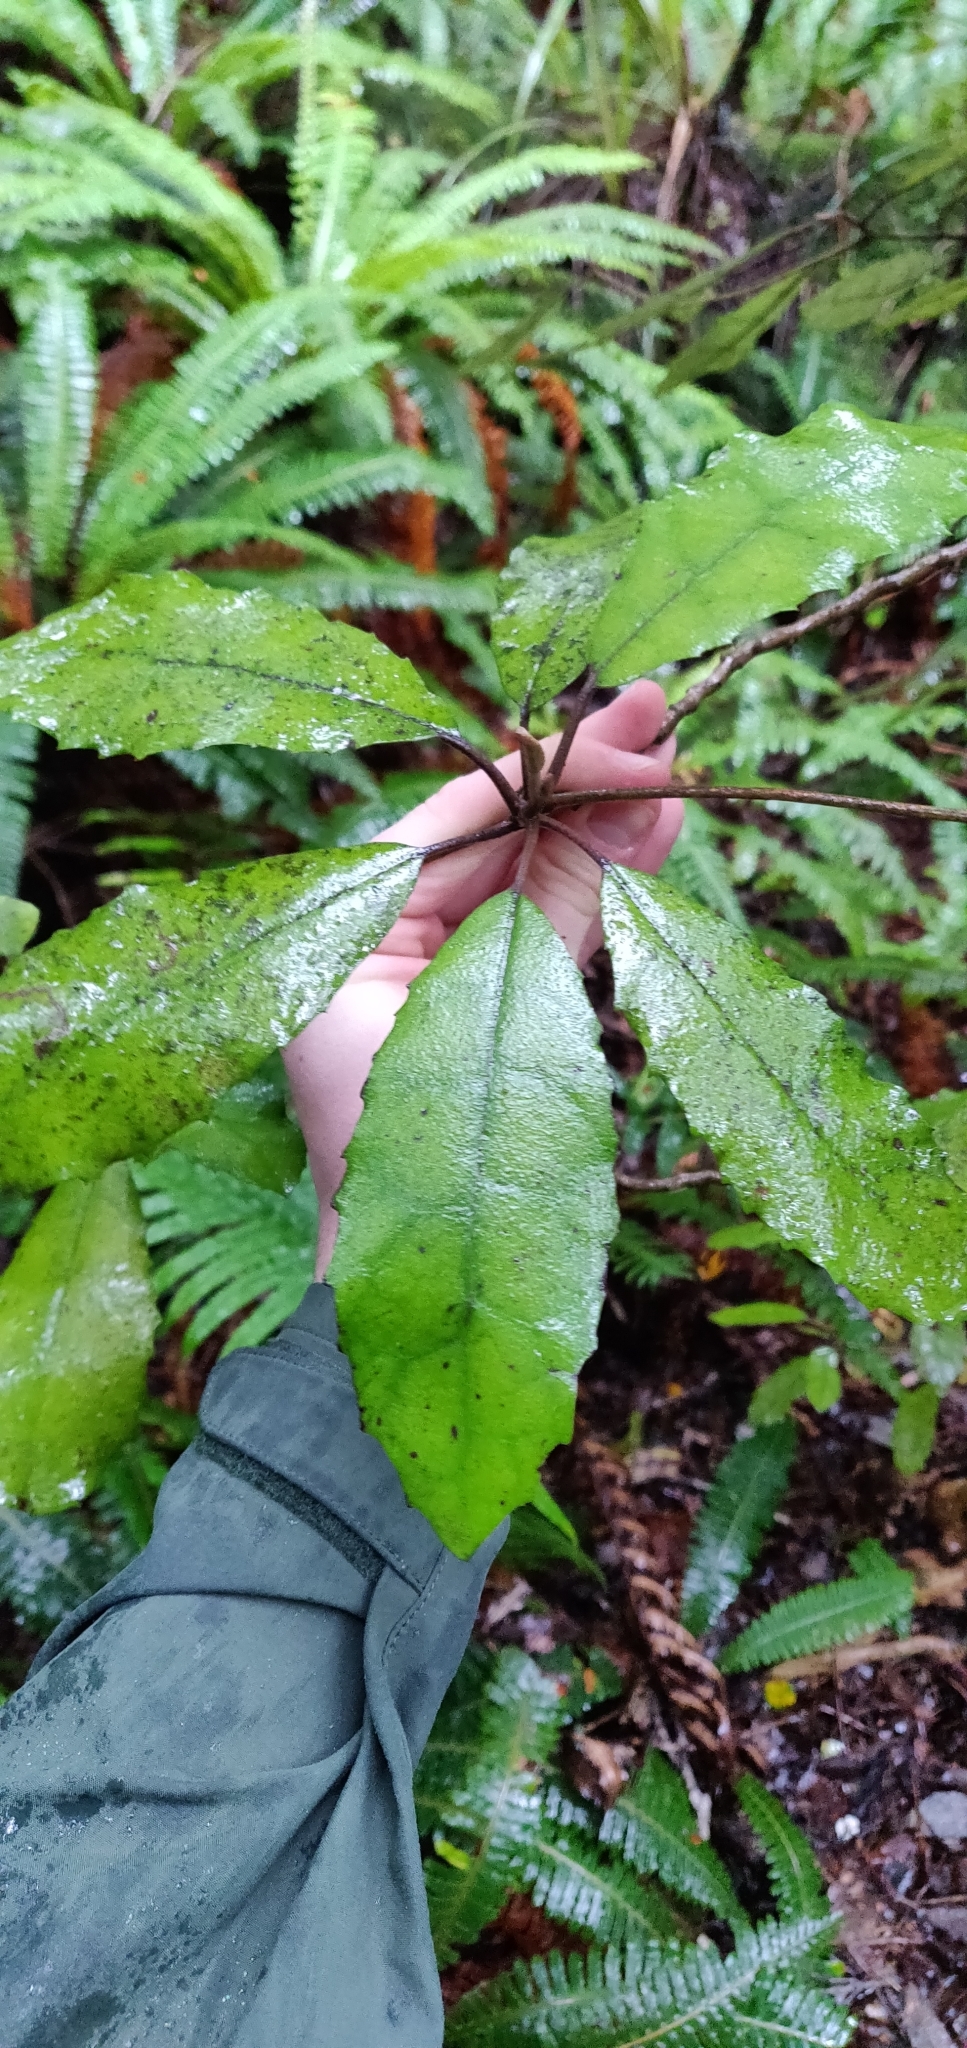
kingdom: Plantae
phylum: Tracheophyta
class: Magnoliopsida
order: Asterales
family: Asteraceae
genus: Olearia
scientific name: Olearia rani
